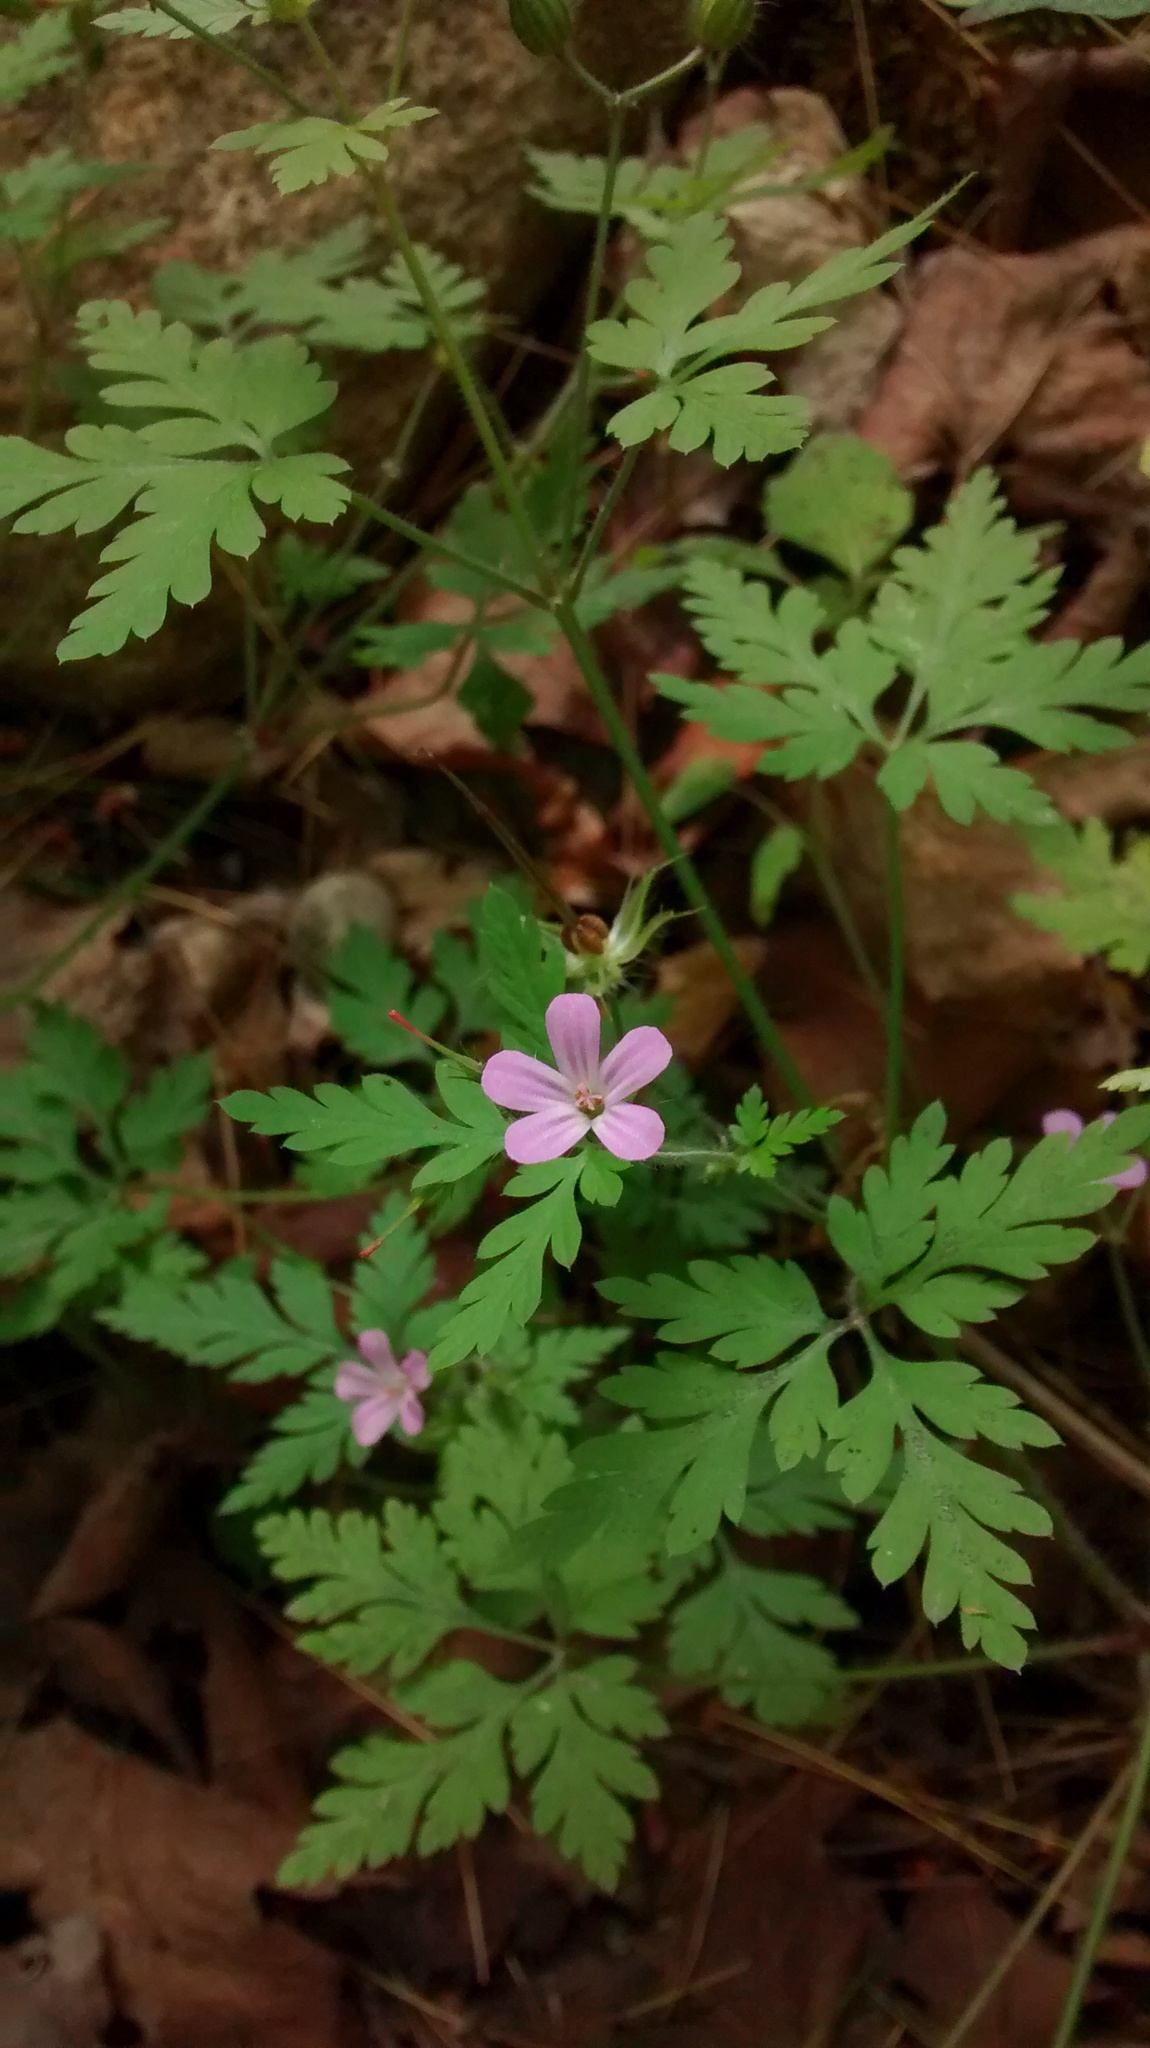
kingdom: Plantae
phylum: Tracheophyta
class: Magnoliopsida
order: Geraniales
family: Geraniaceae
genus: Geranium
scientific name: Geranium robertianum
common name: Herb-robert
